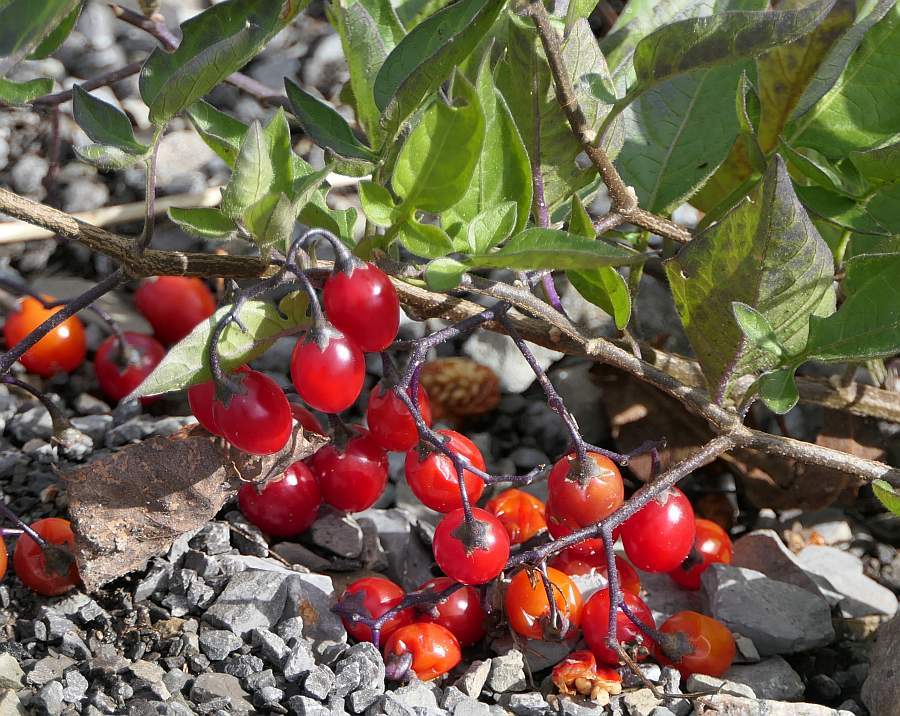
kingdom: Plantae
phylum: Tracheophyta
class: Magnoliopsida
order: Solanales
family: Solanaceae
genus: Solanum
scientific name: Solanum dulcamara
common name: Climbing nightshade
